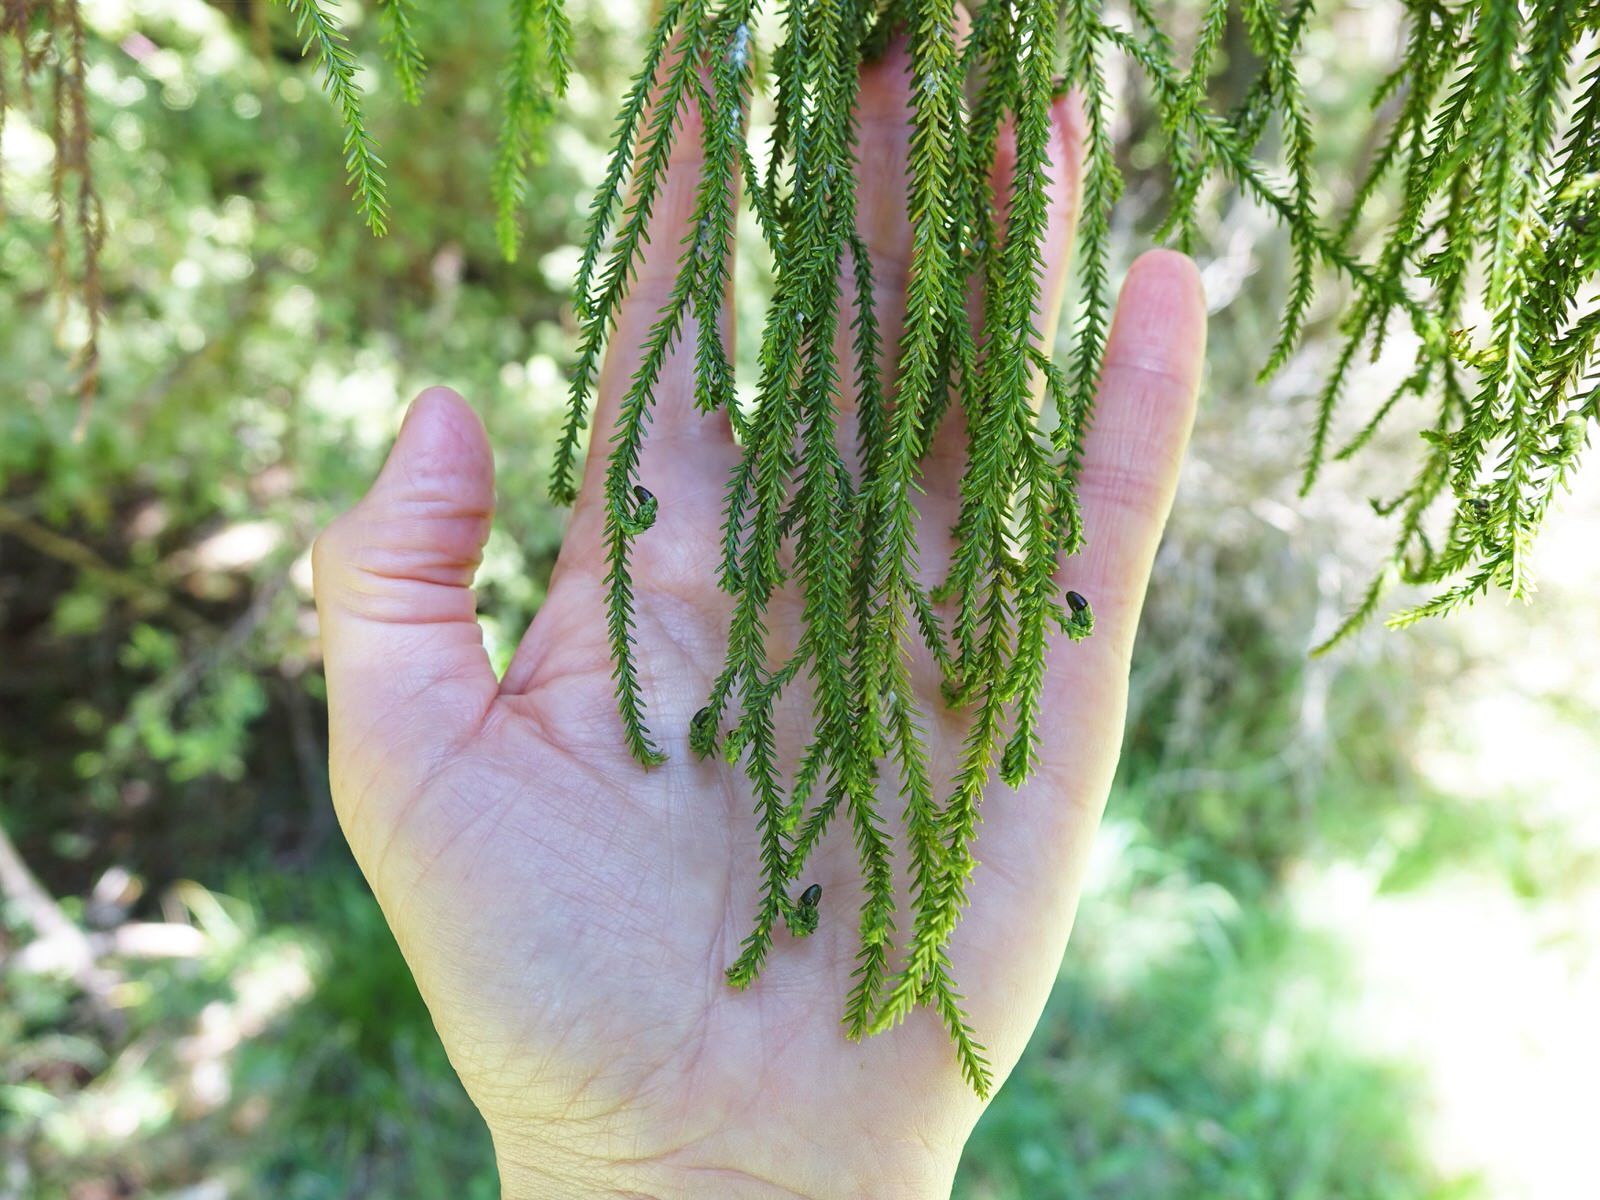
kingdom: Plantae
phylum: Tracheophyta
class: Pinopsida
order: Pinales
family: Podocarpaceae
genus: Dacrydium
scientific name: Dacrydium cupressinum
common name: Red pine
